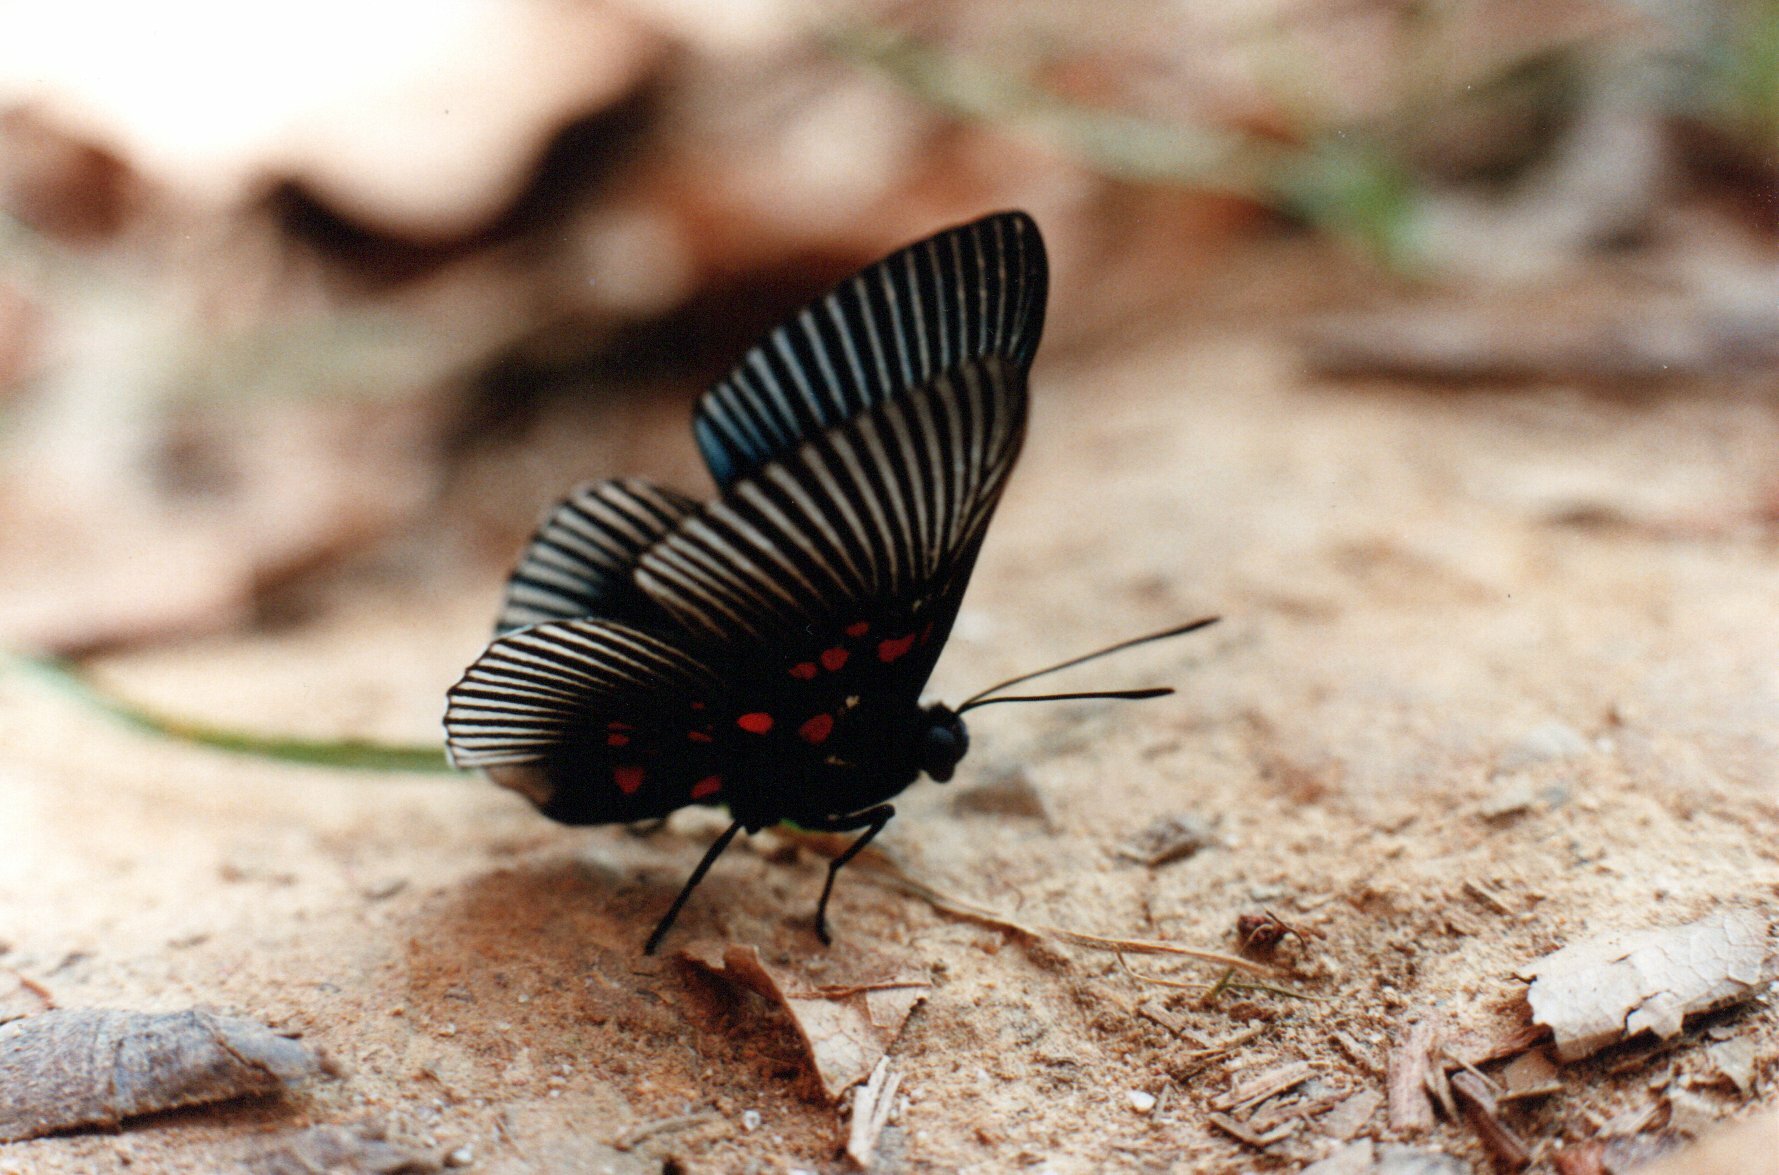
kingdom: Animalia
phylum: Arthropoda
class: Insecta
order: Lepidoptera
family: Riodinidae
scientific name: Riodinidae
